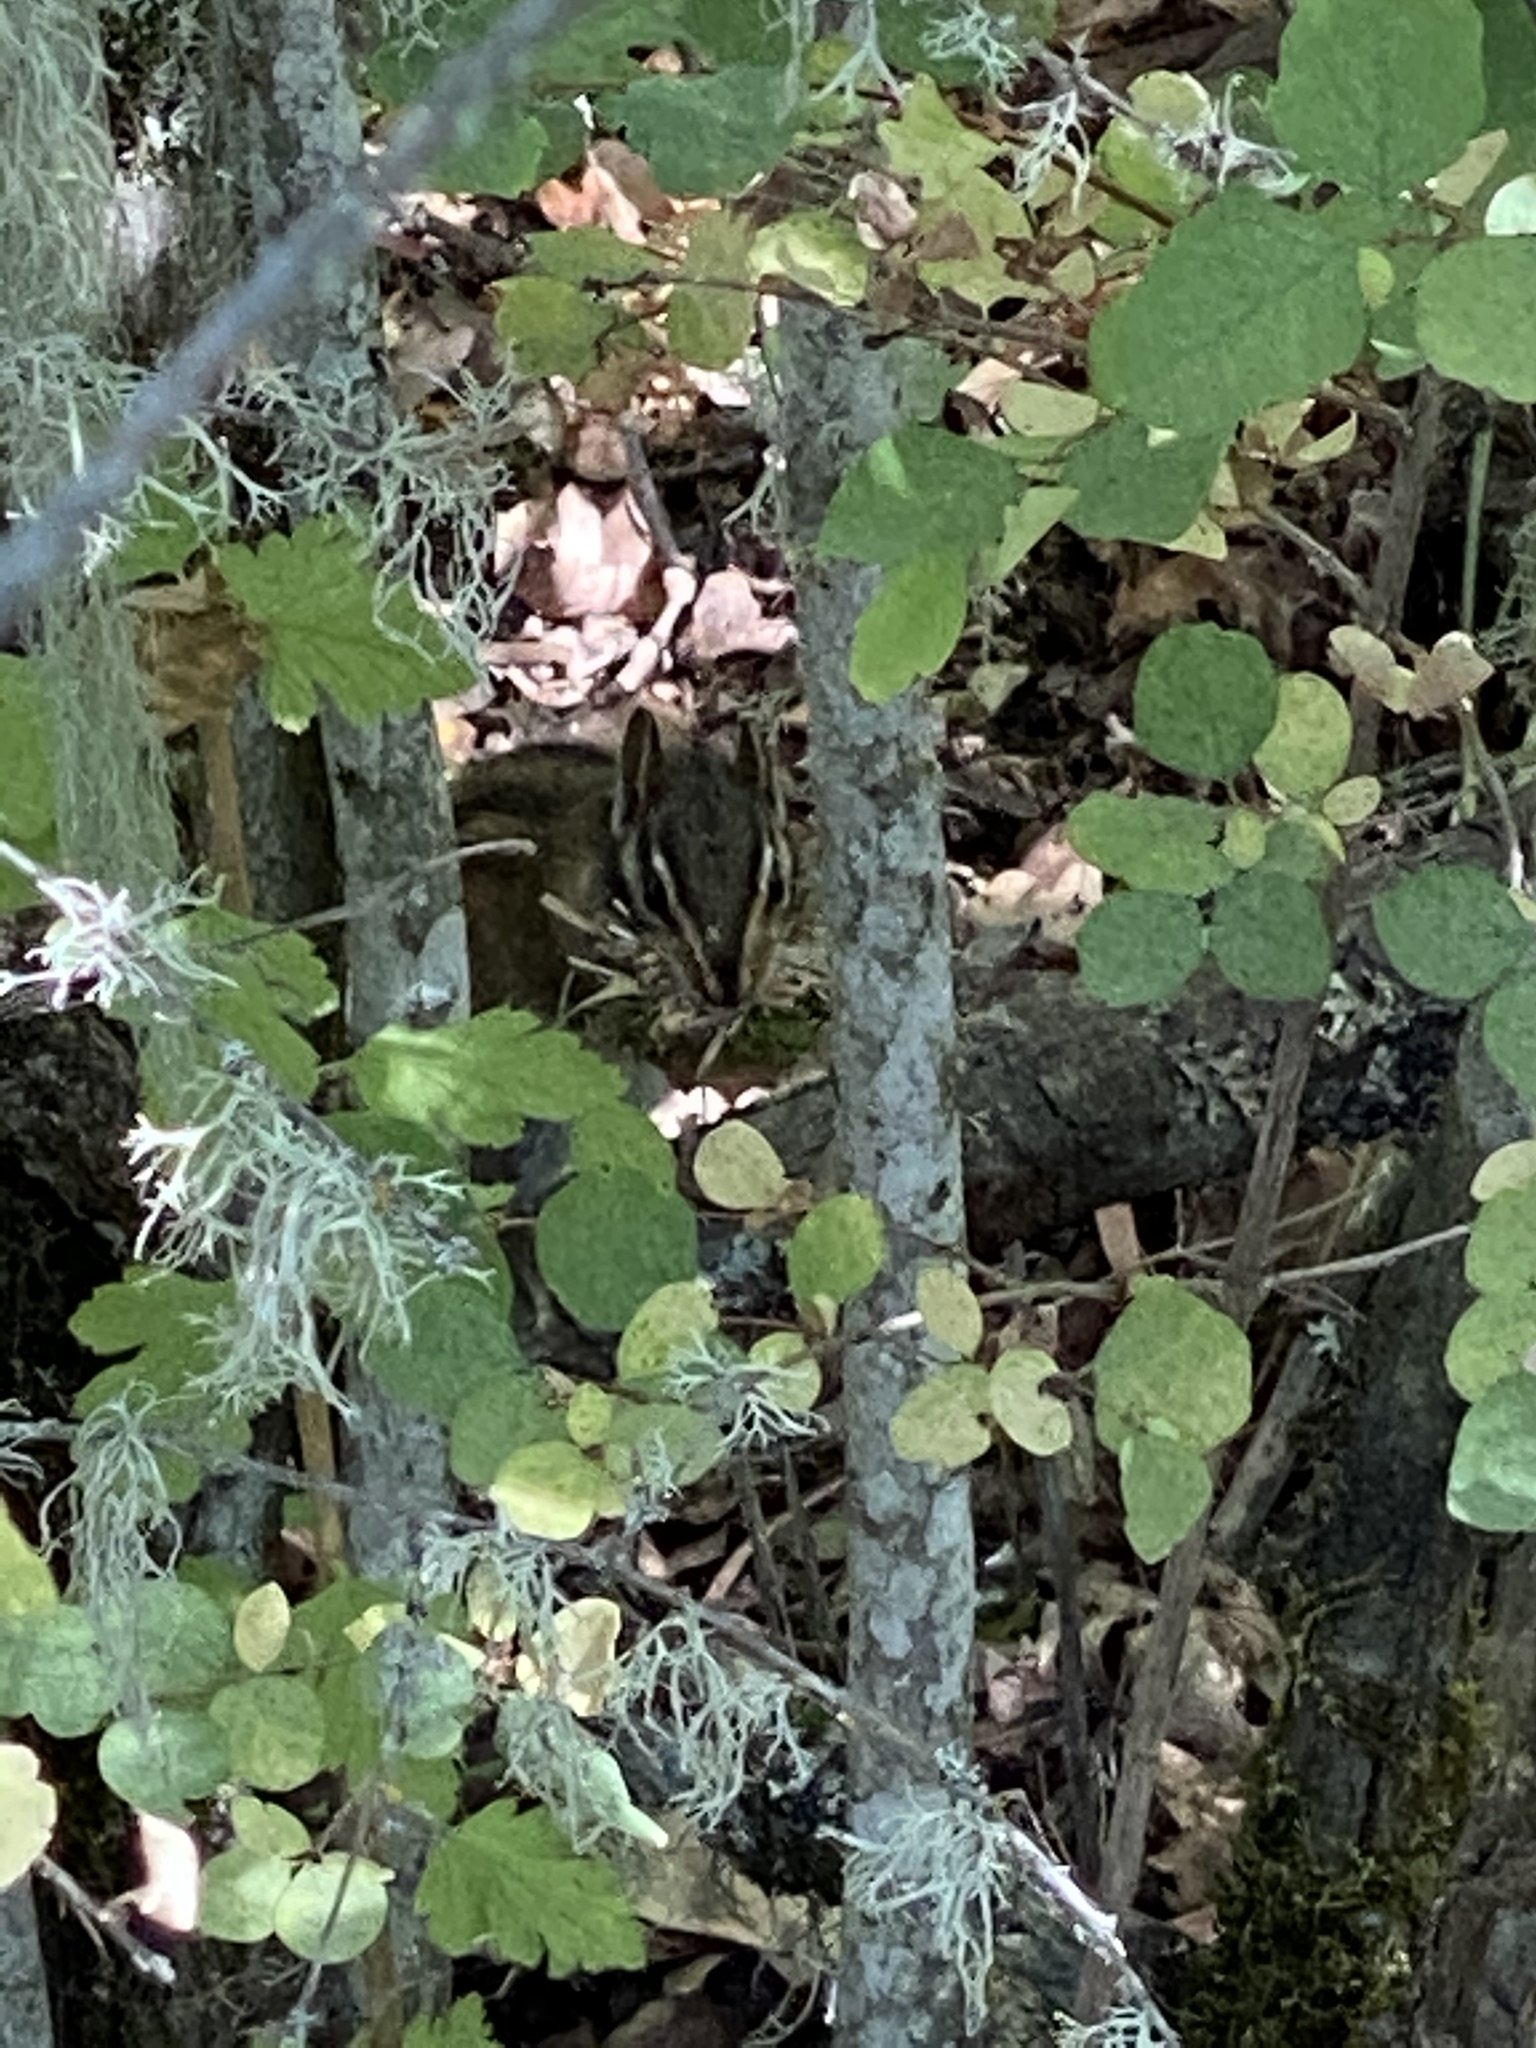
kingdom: Animalia
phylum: Chordata
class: Mammalia
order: Rodentia
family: Sciuridae
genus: Tamias
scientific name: Tamias townsendii
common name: Townsend's chipmunk
